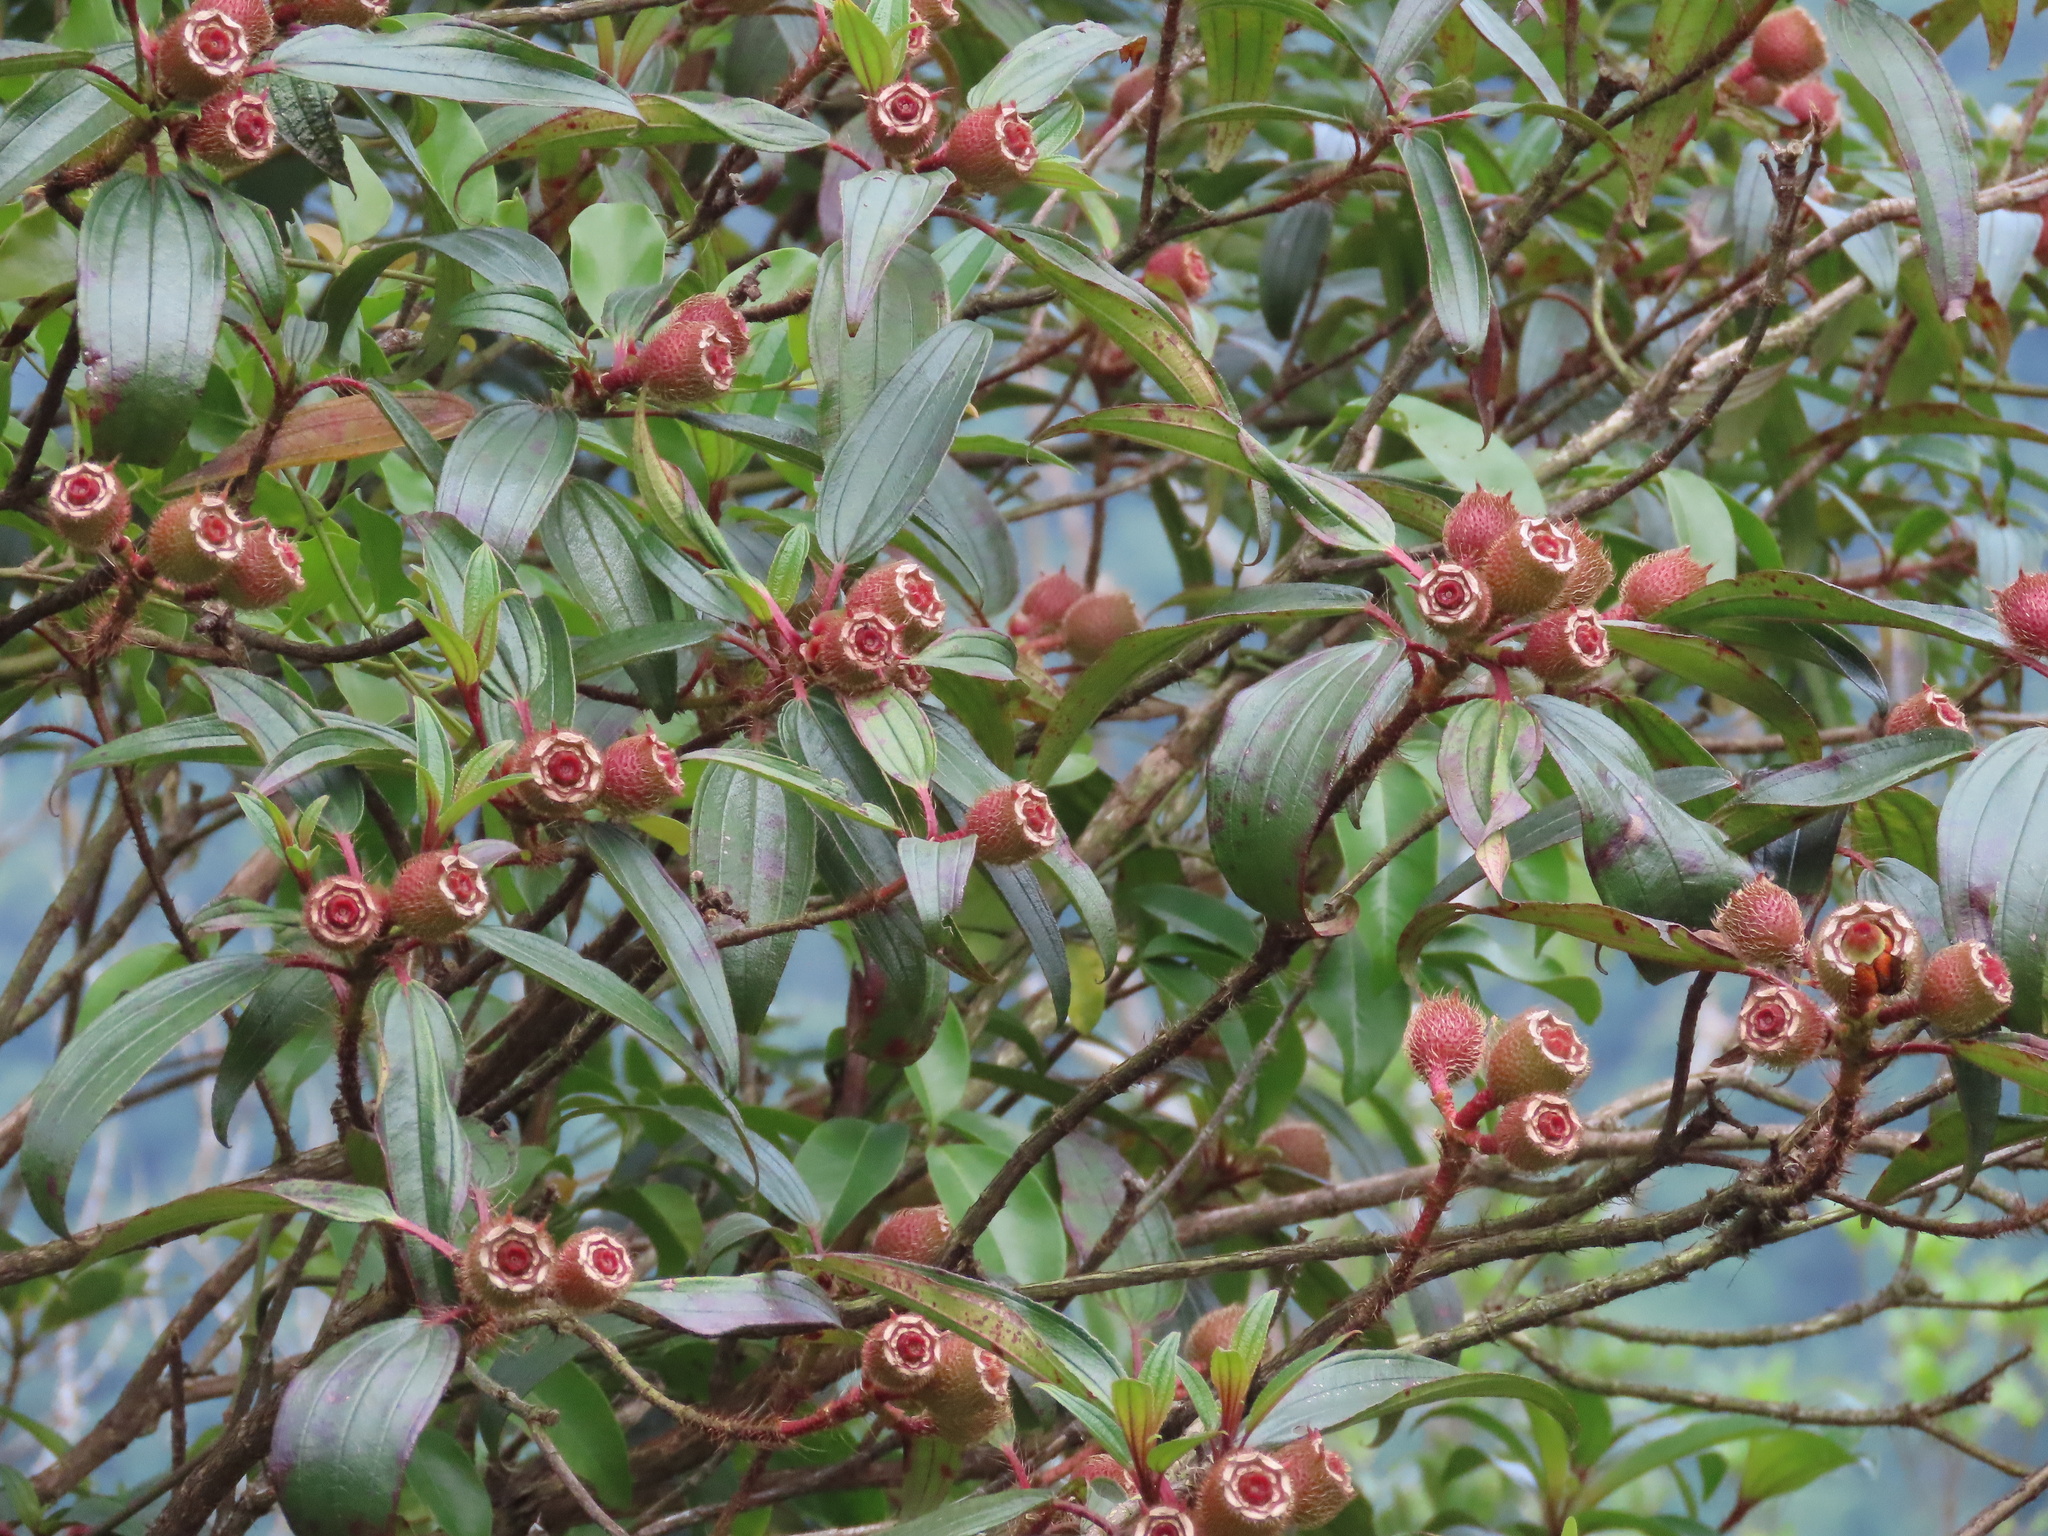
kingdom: Plantae
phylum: Tracheophyta
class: Magnoliopsida
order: Myrtales
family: Melastomataceae
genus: Melastoma
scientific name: Melastoma sanguineum
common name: Red melastome
